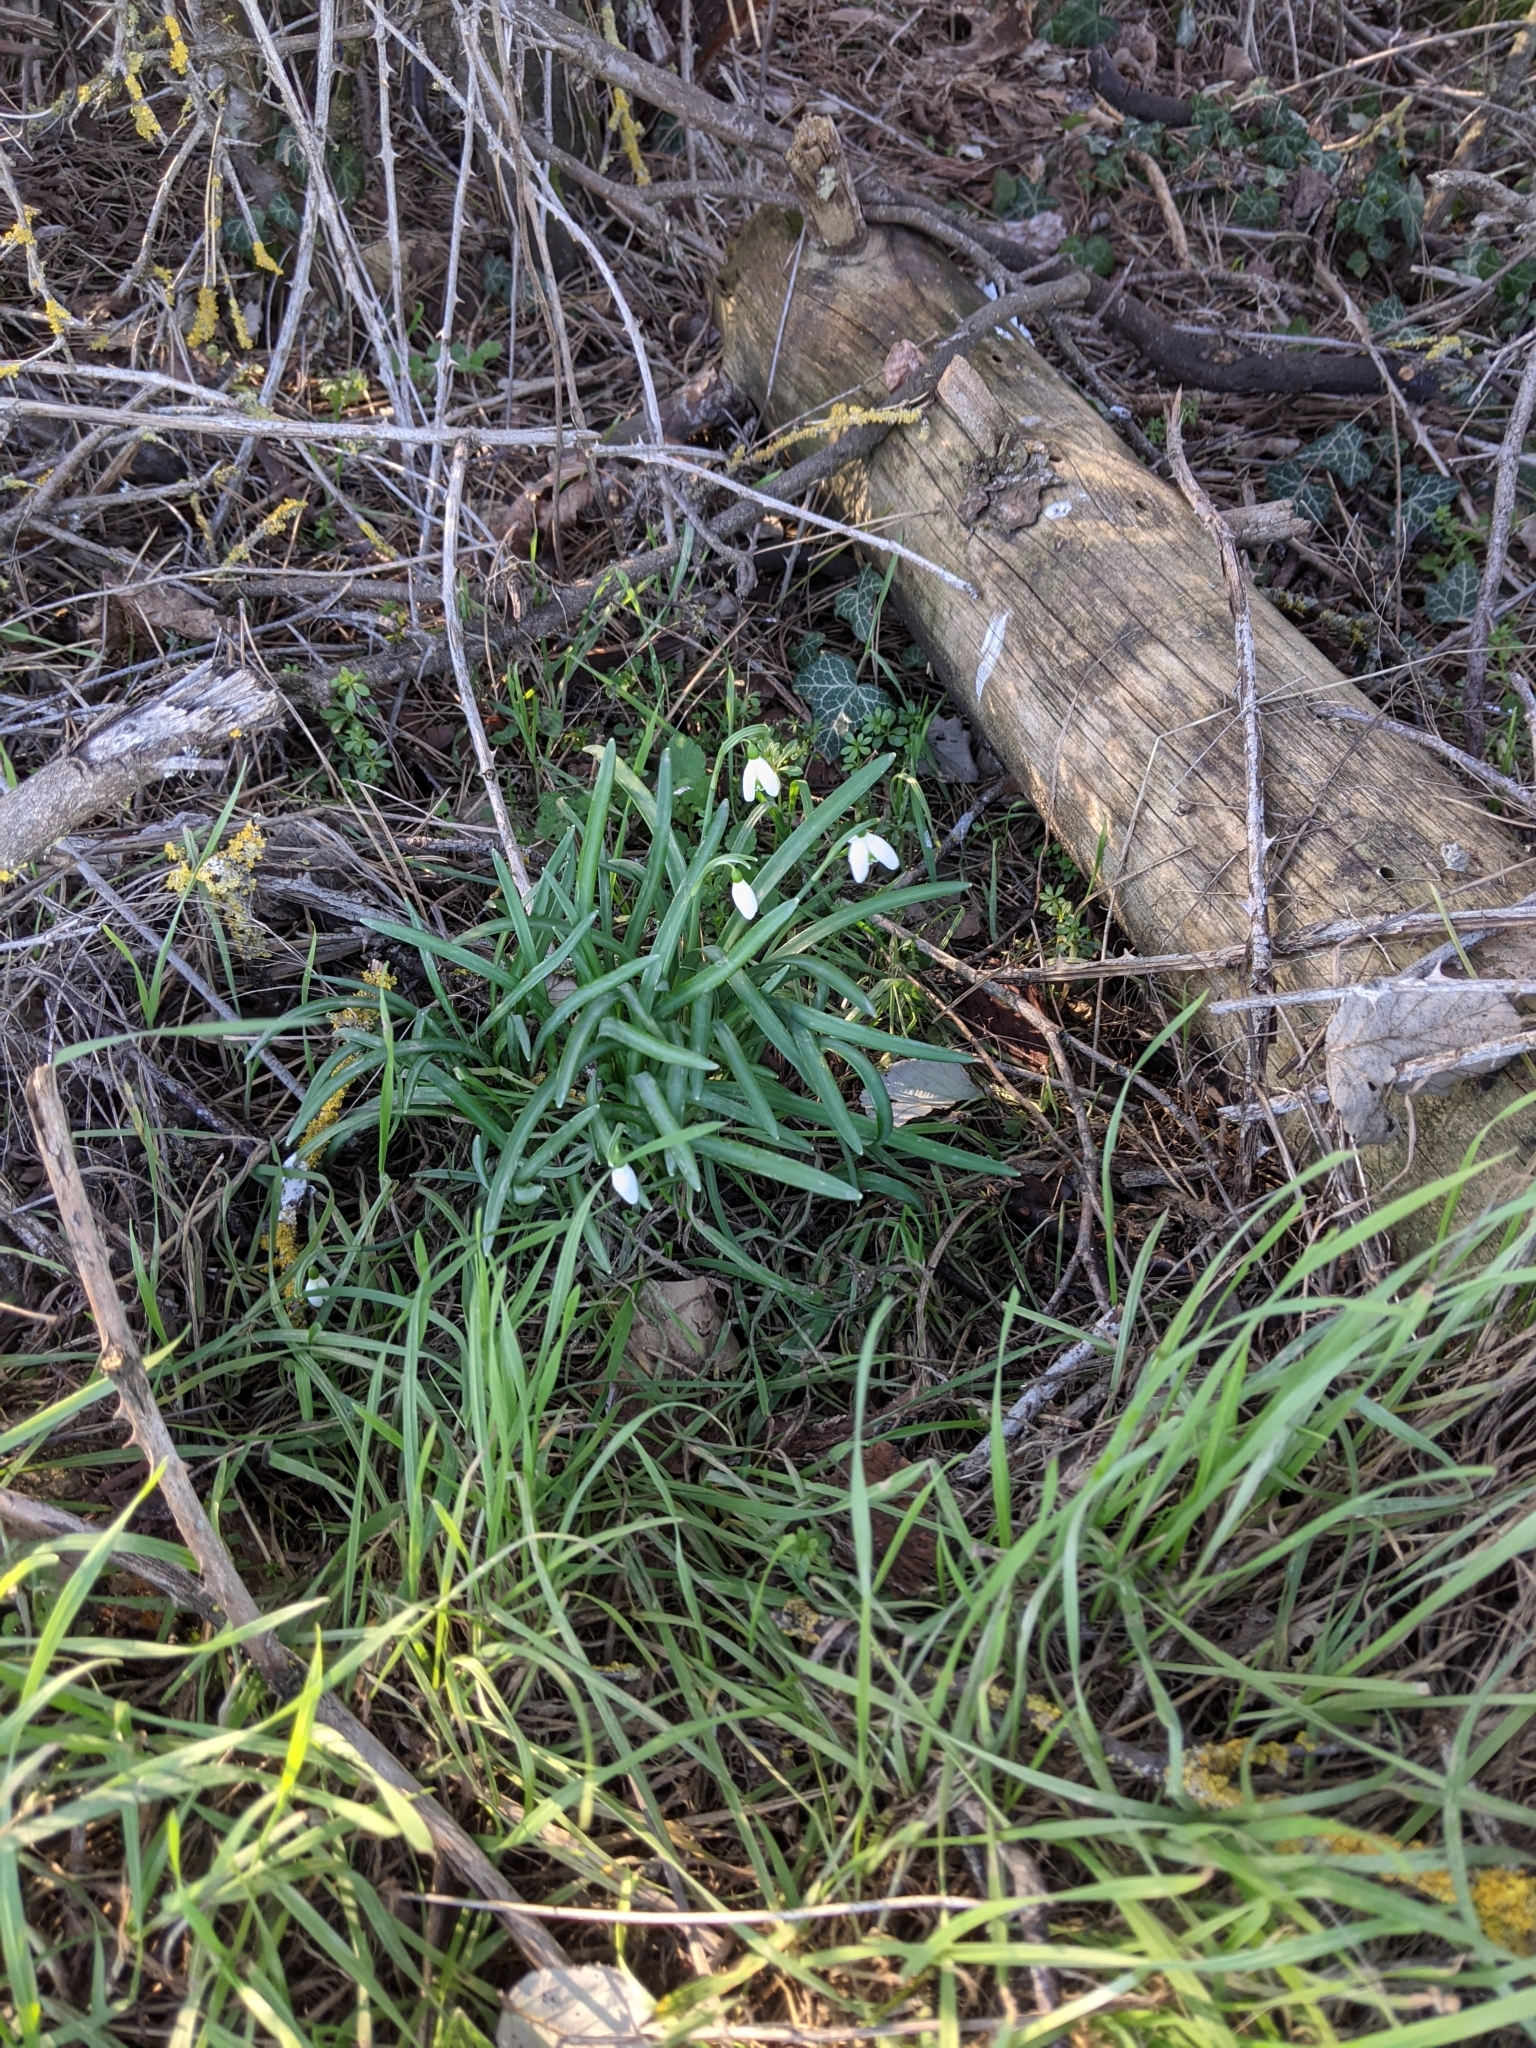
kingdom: Plantae
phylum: Tracheophyta
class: Liliopsida
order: Asparagales
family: Amaryllidaceae
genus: Galanthus
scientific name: Galanthus nivalis
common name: Snowdrop
